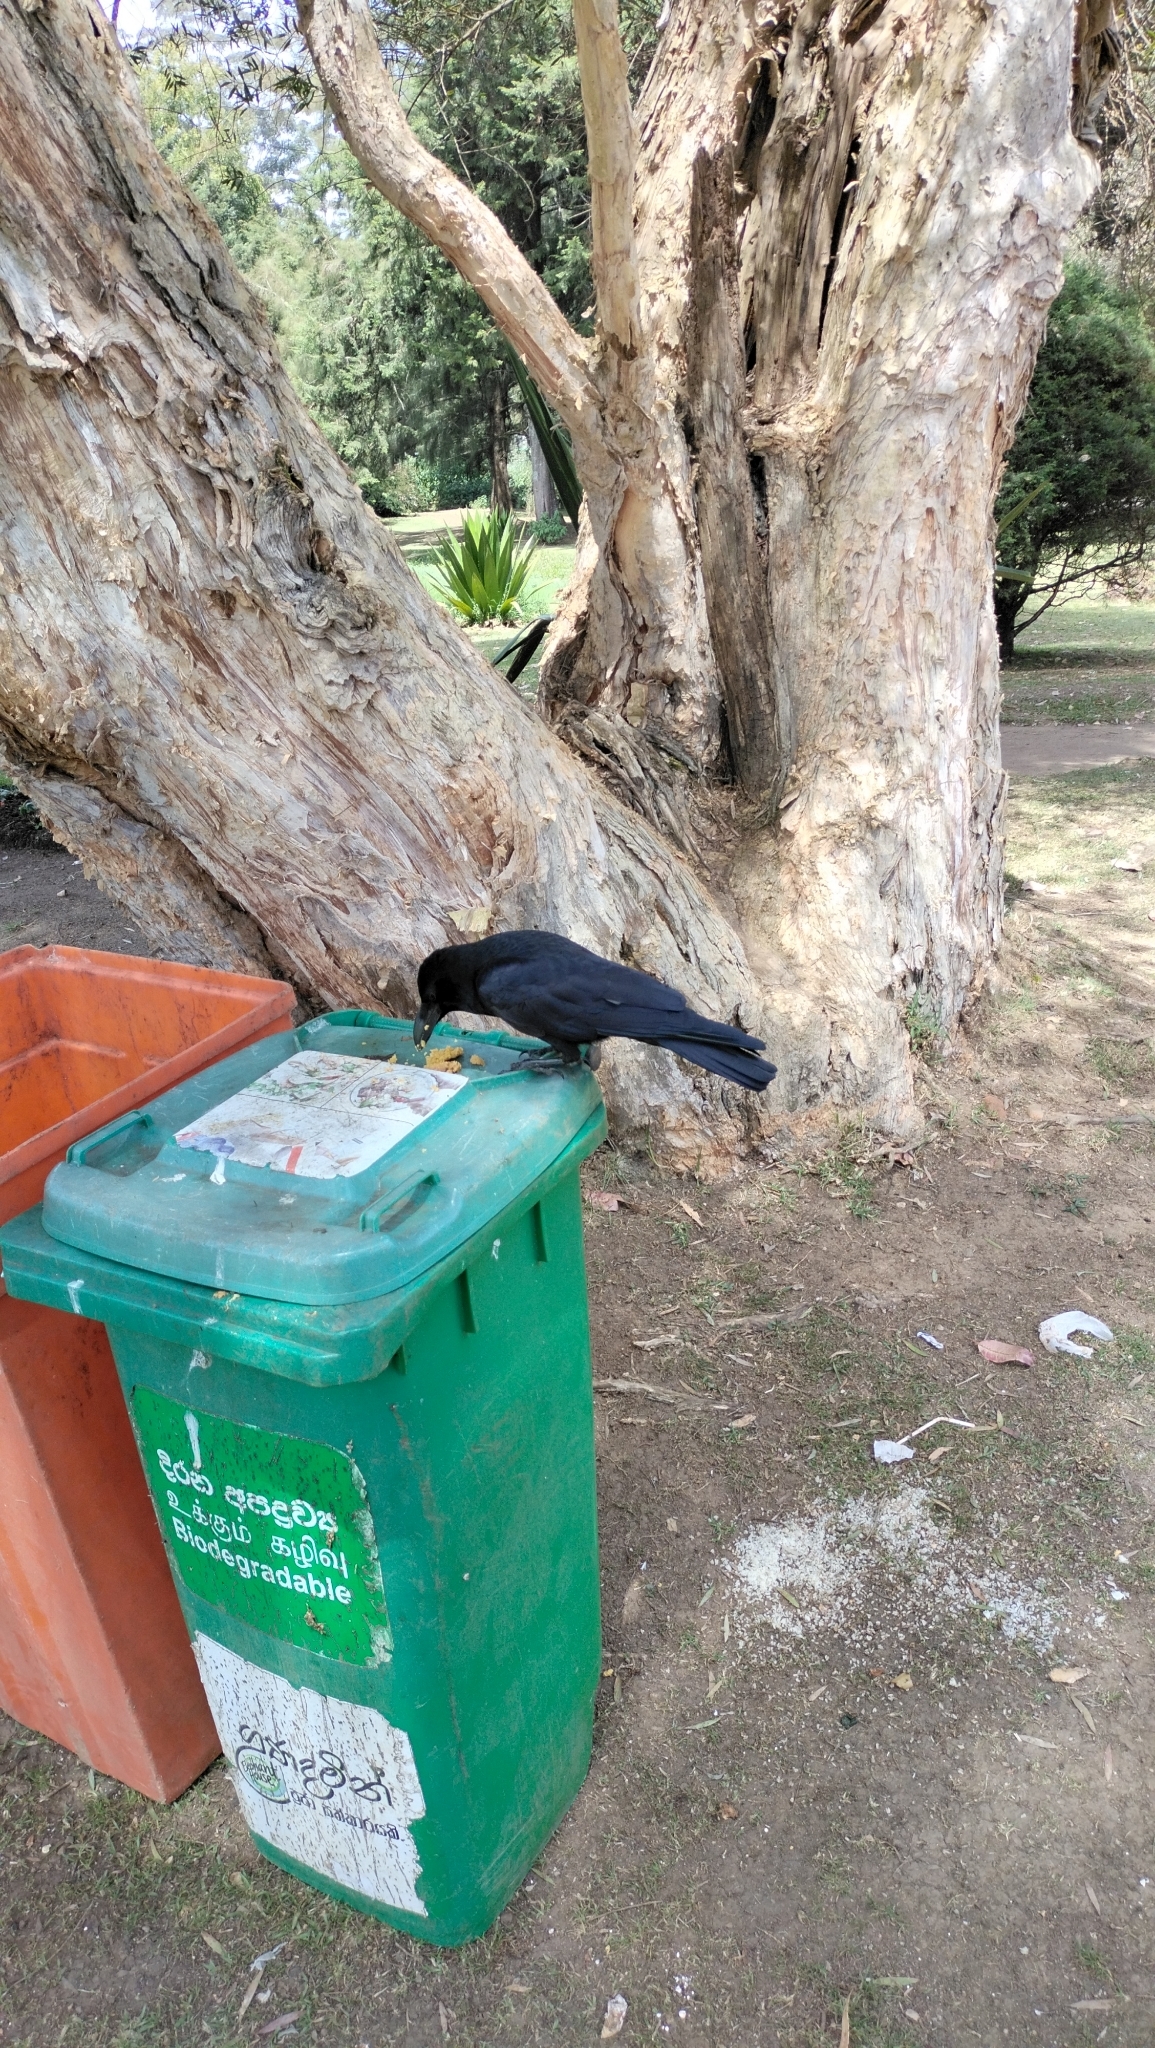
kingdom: Animalia
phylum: Chordata
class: Aves
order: Passeriformes
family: Corvidae
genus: Corvus
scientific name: Corvus macrorhynchos
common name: Large-billed crow
